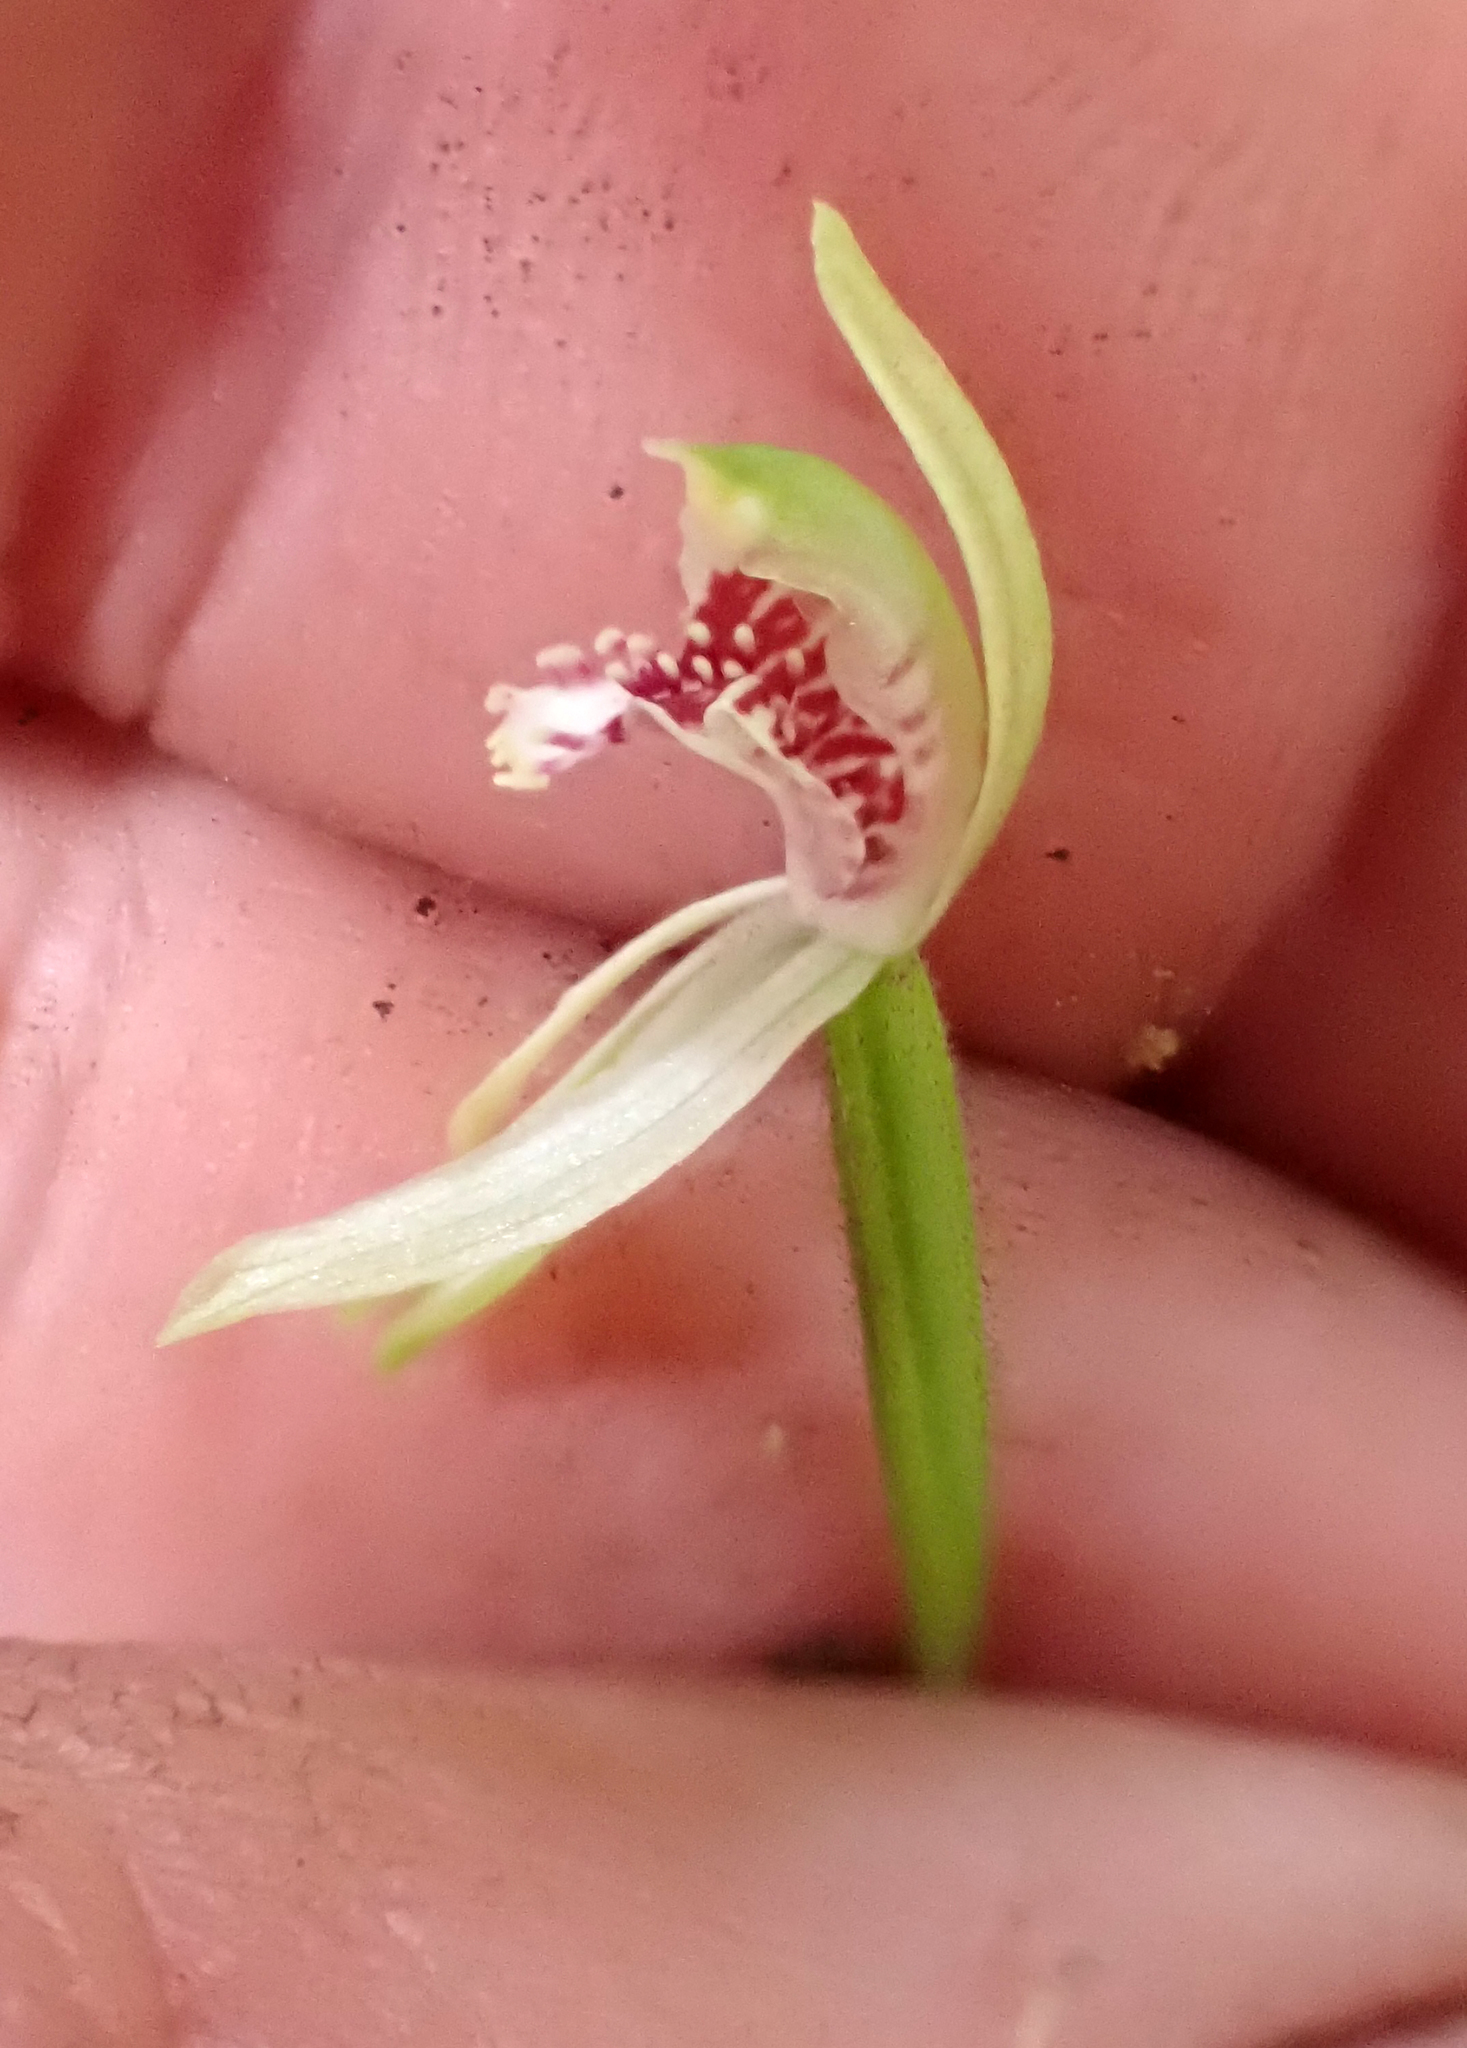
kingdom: Plantae
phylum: Tracheophyta
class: Liliopsida
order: Asparagales
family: Orchidaceae
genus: Caladenia
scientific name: Caladenia chlorostyla
